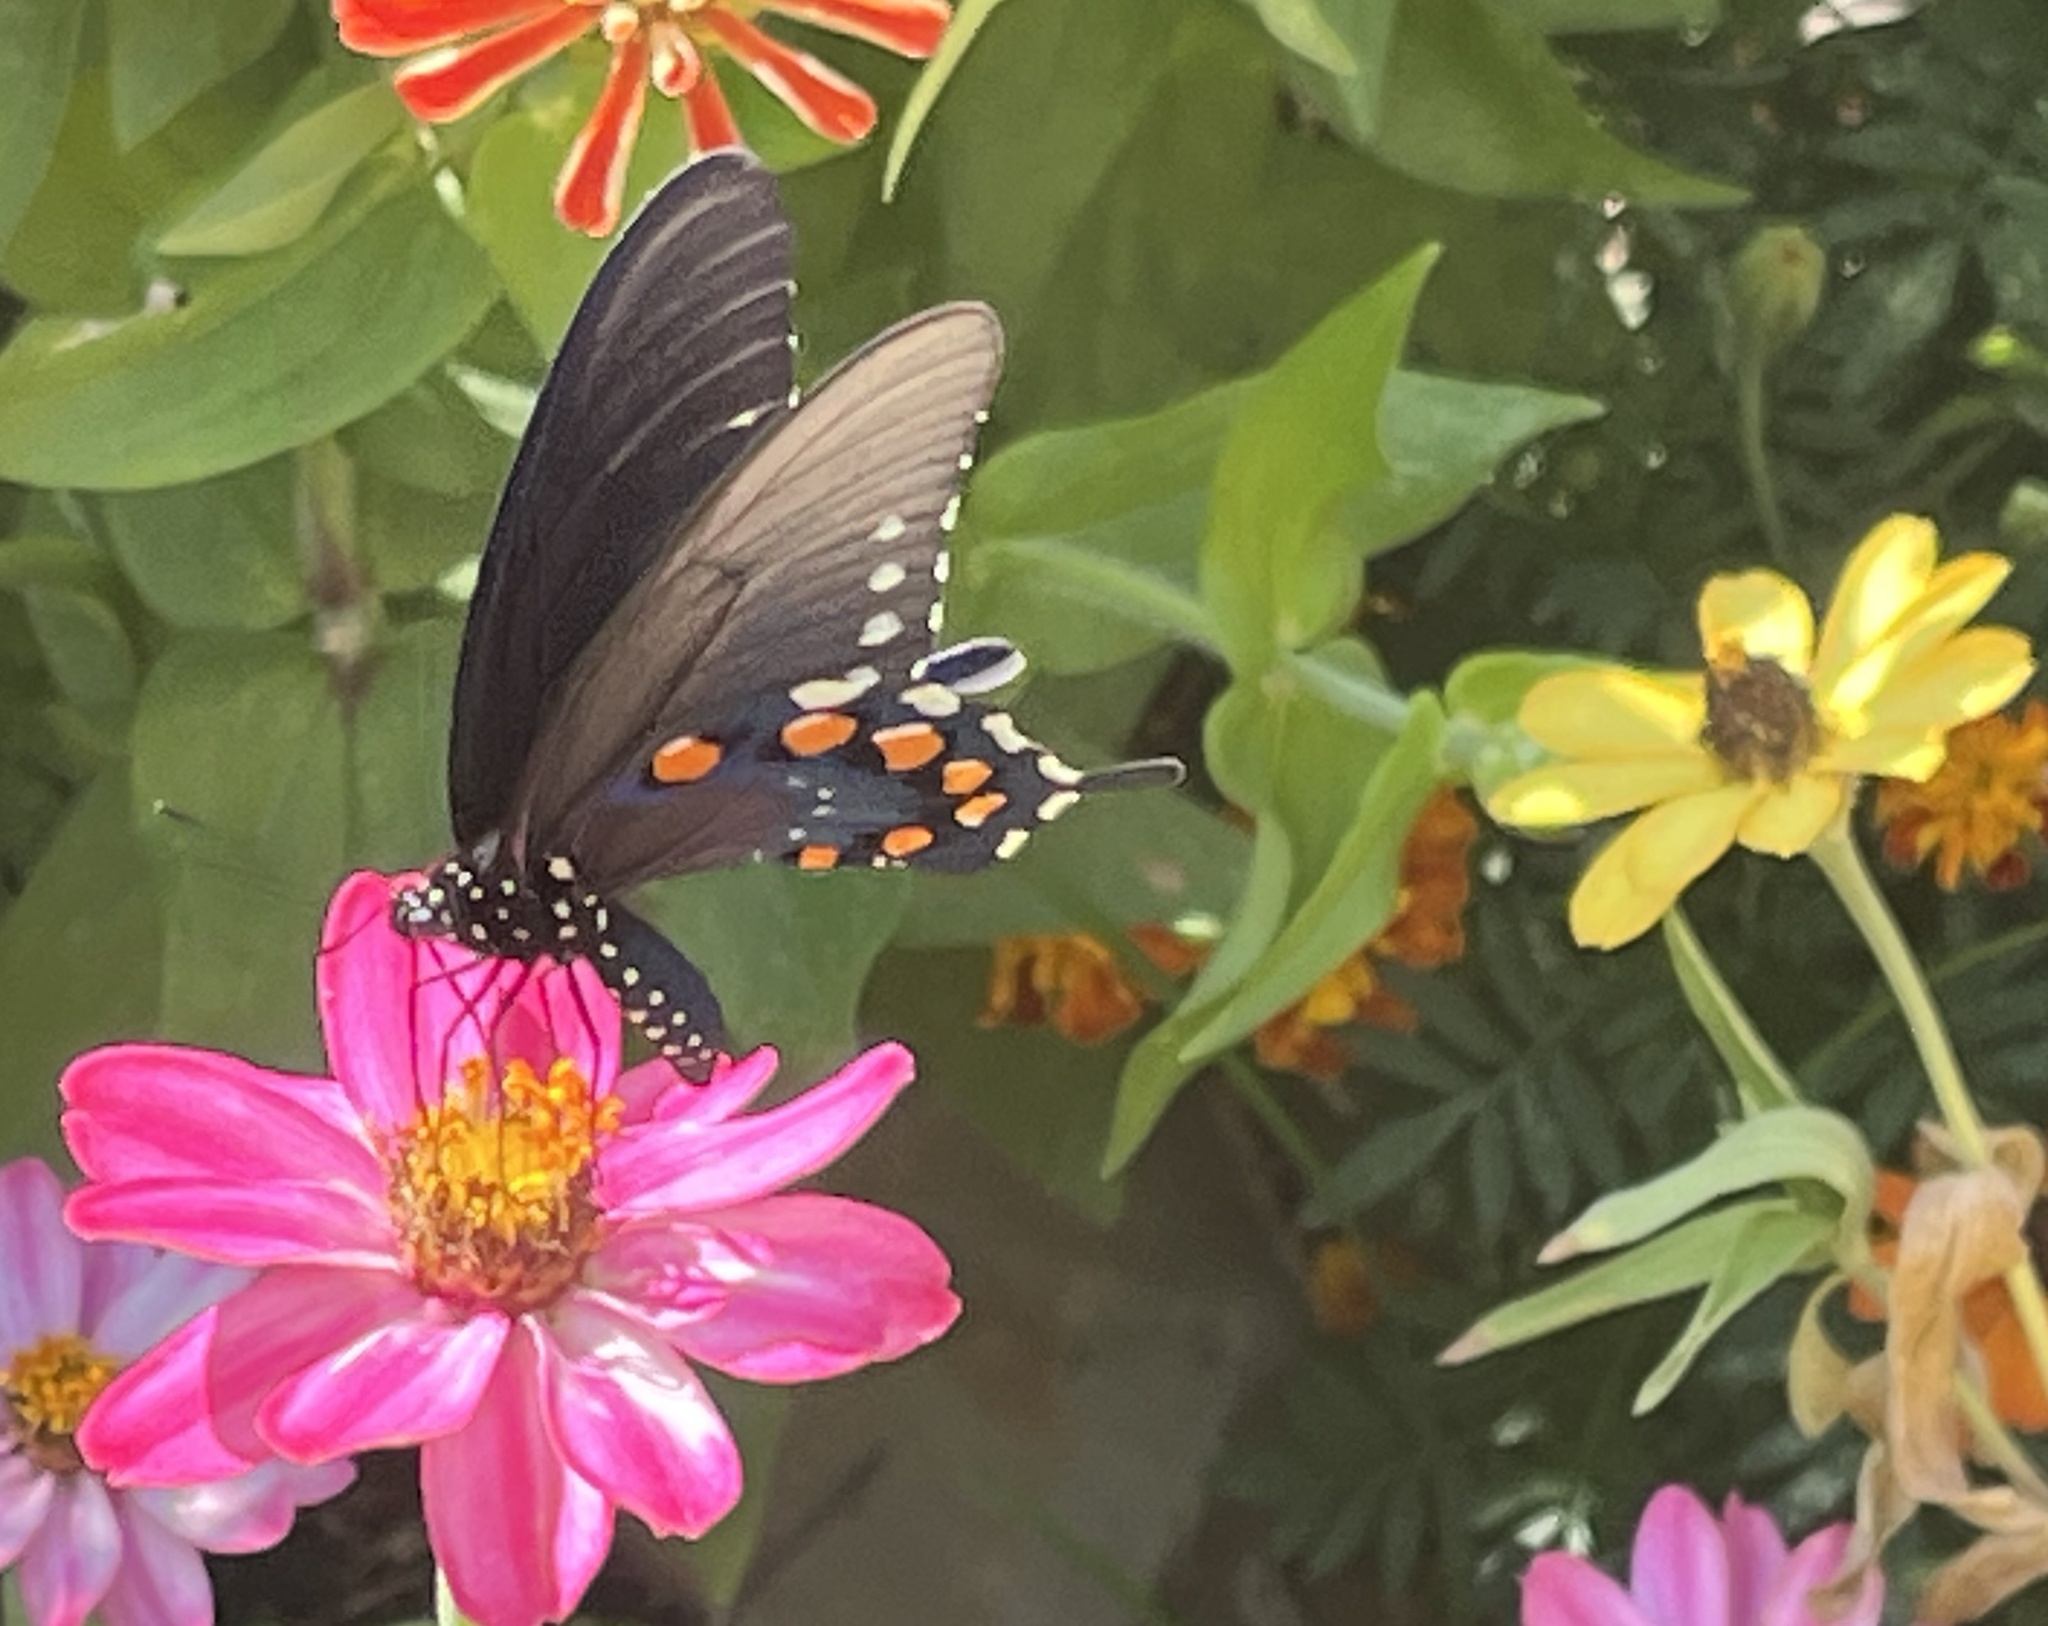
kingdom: Animalia
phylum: Arthropoda
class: Insecta
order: Lepidoptera
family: Papilionidae
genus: Battus
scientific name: Battus philenor
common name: Pipevine swallowtail
